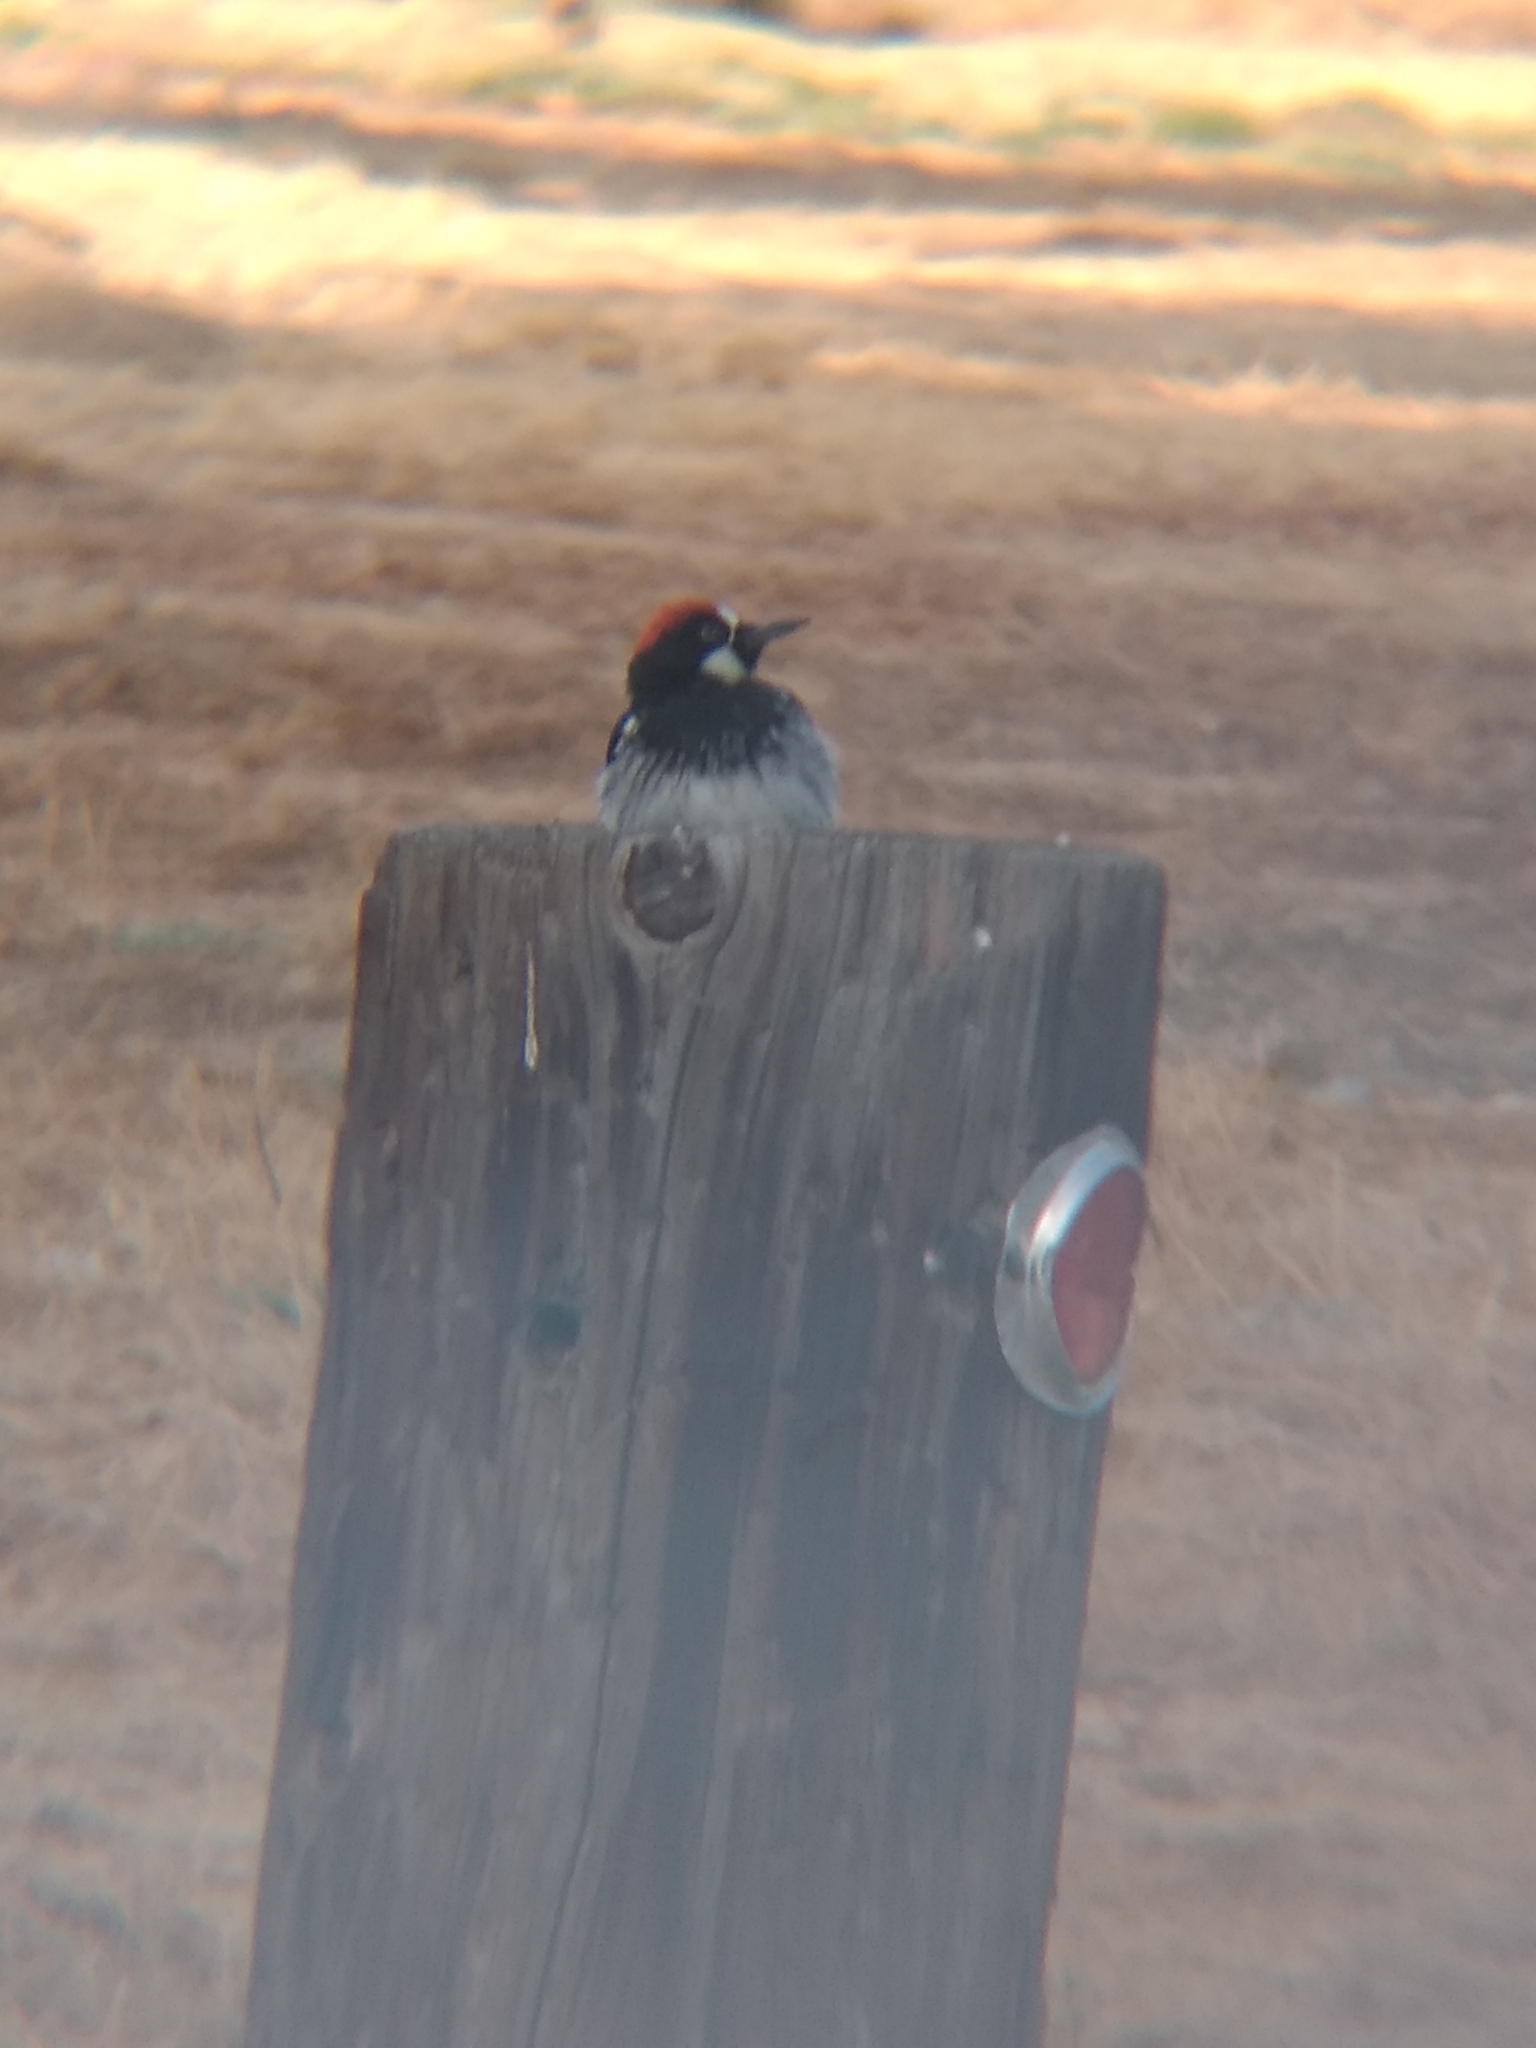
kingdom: Animalia
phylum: Chordata
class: Aves
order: Piciformes
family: Picidae
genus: Melanerpes
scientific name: Melanerpes formicivorus
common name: Acorn woodpecker
